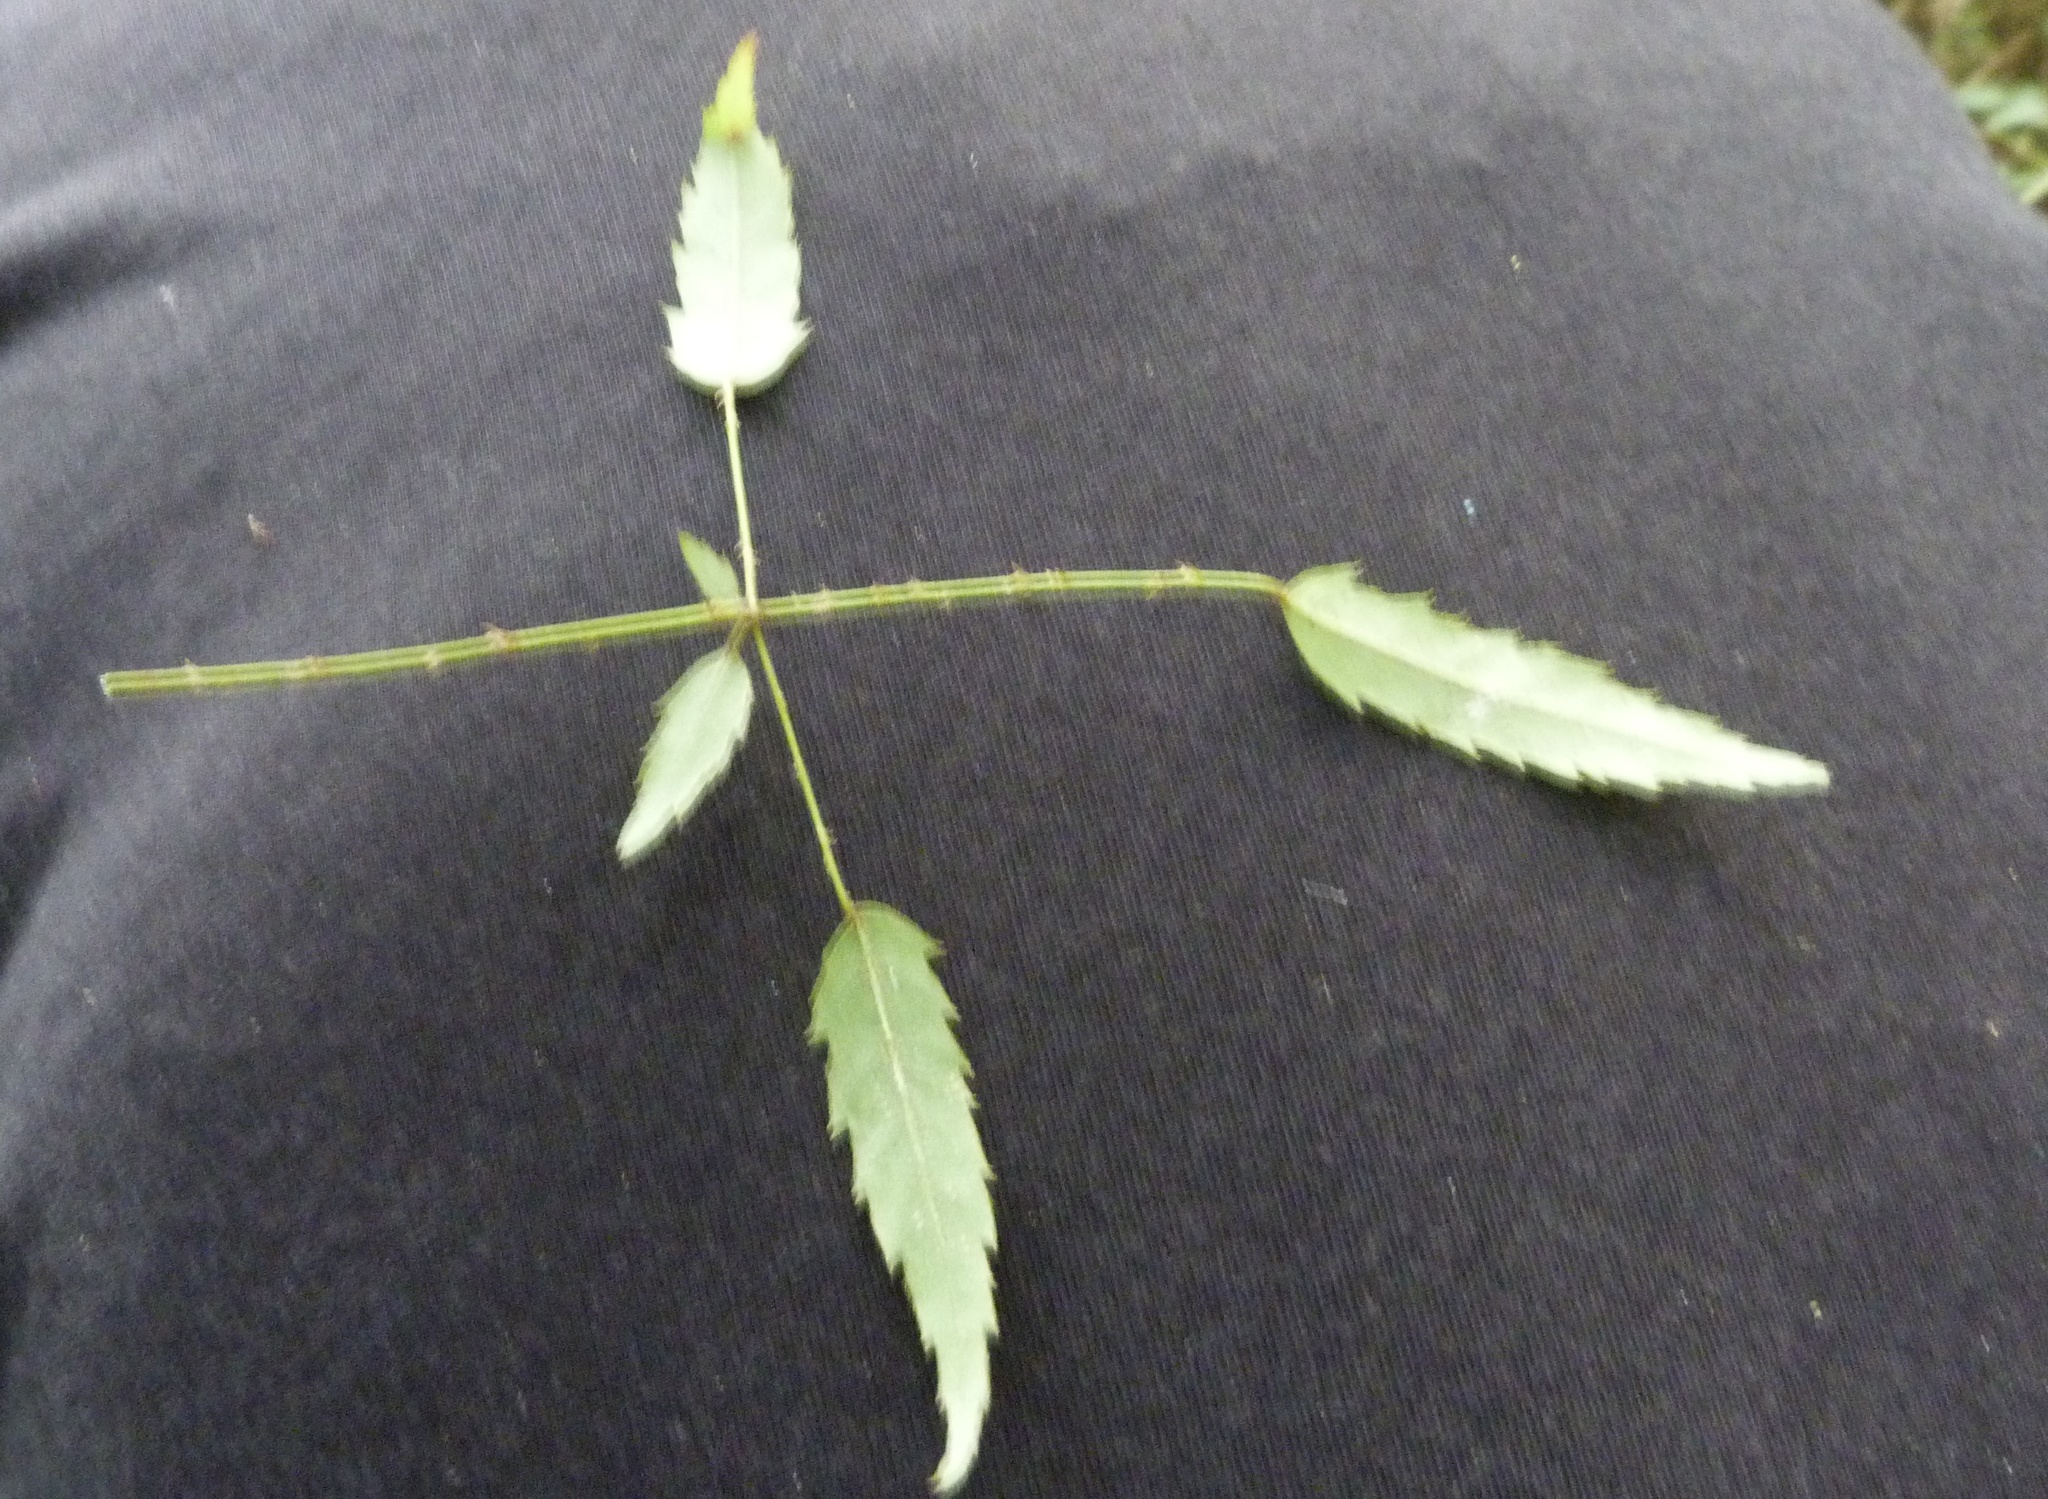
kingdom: Plantae
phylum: Tracheophyta
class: Magnoliopsida
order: Rosales
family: Rosaceae
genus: Rubus
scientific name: Rubus schmidelioides
